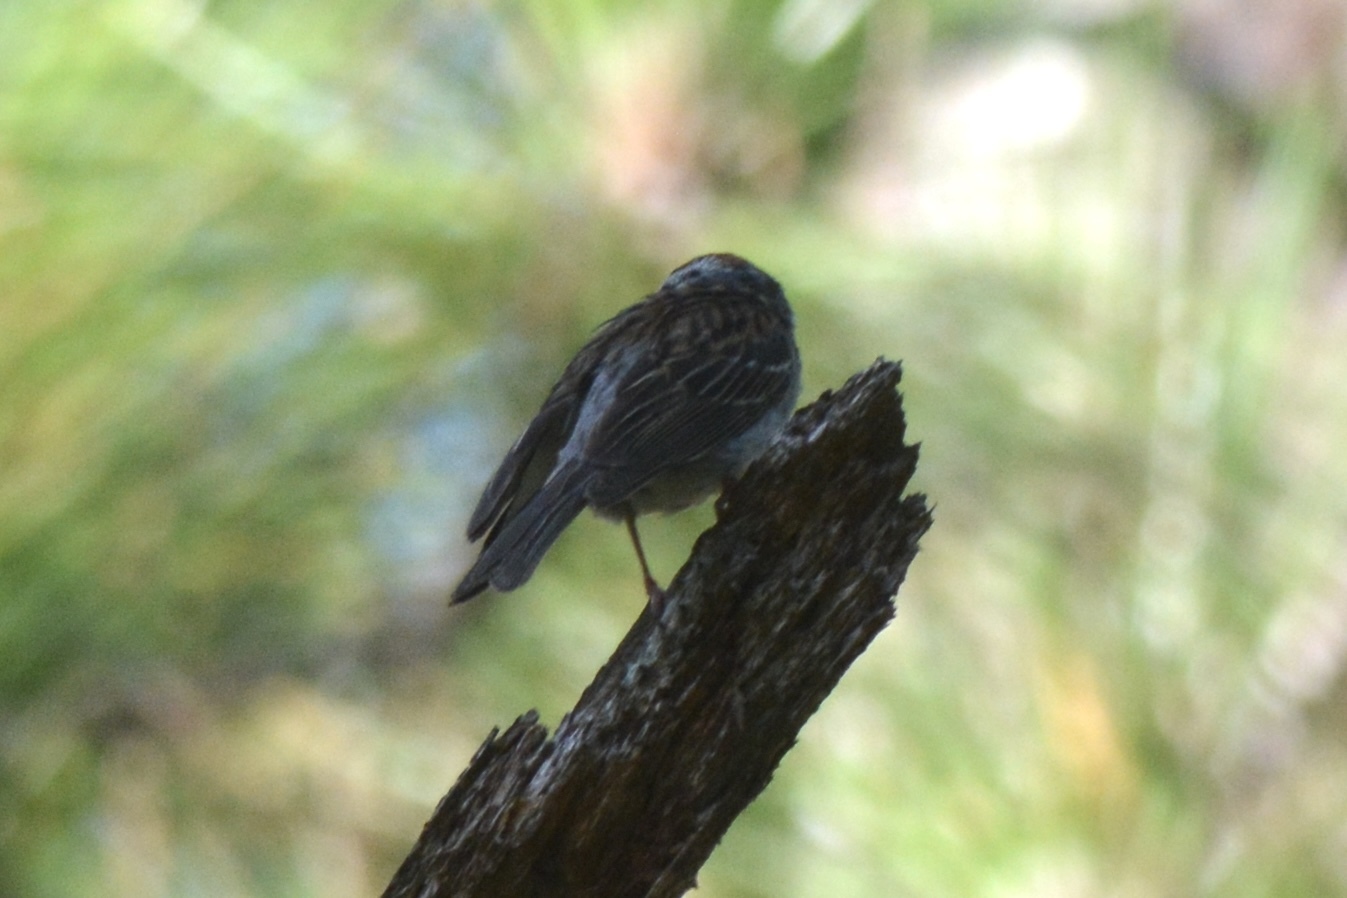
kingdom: Animalia
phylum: Chordata
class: Aves
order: Passeriformes
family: Passerellidae
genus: Spizella
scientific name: Spizella passerina
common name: Chipping sparrow
